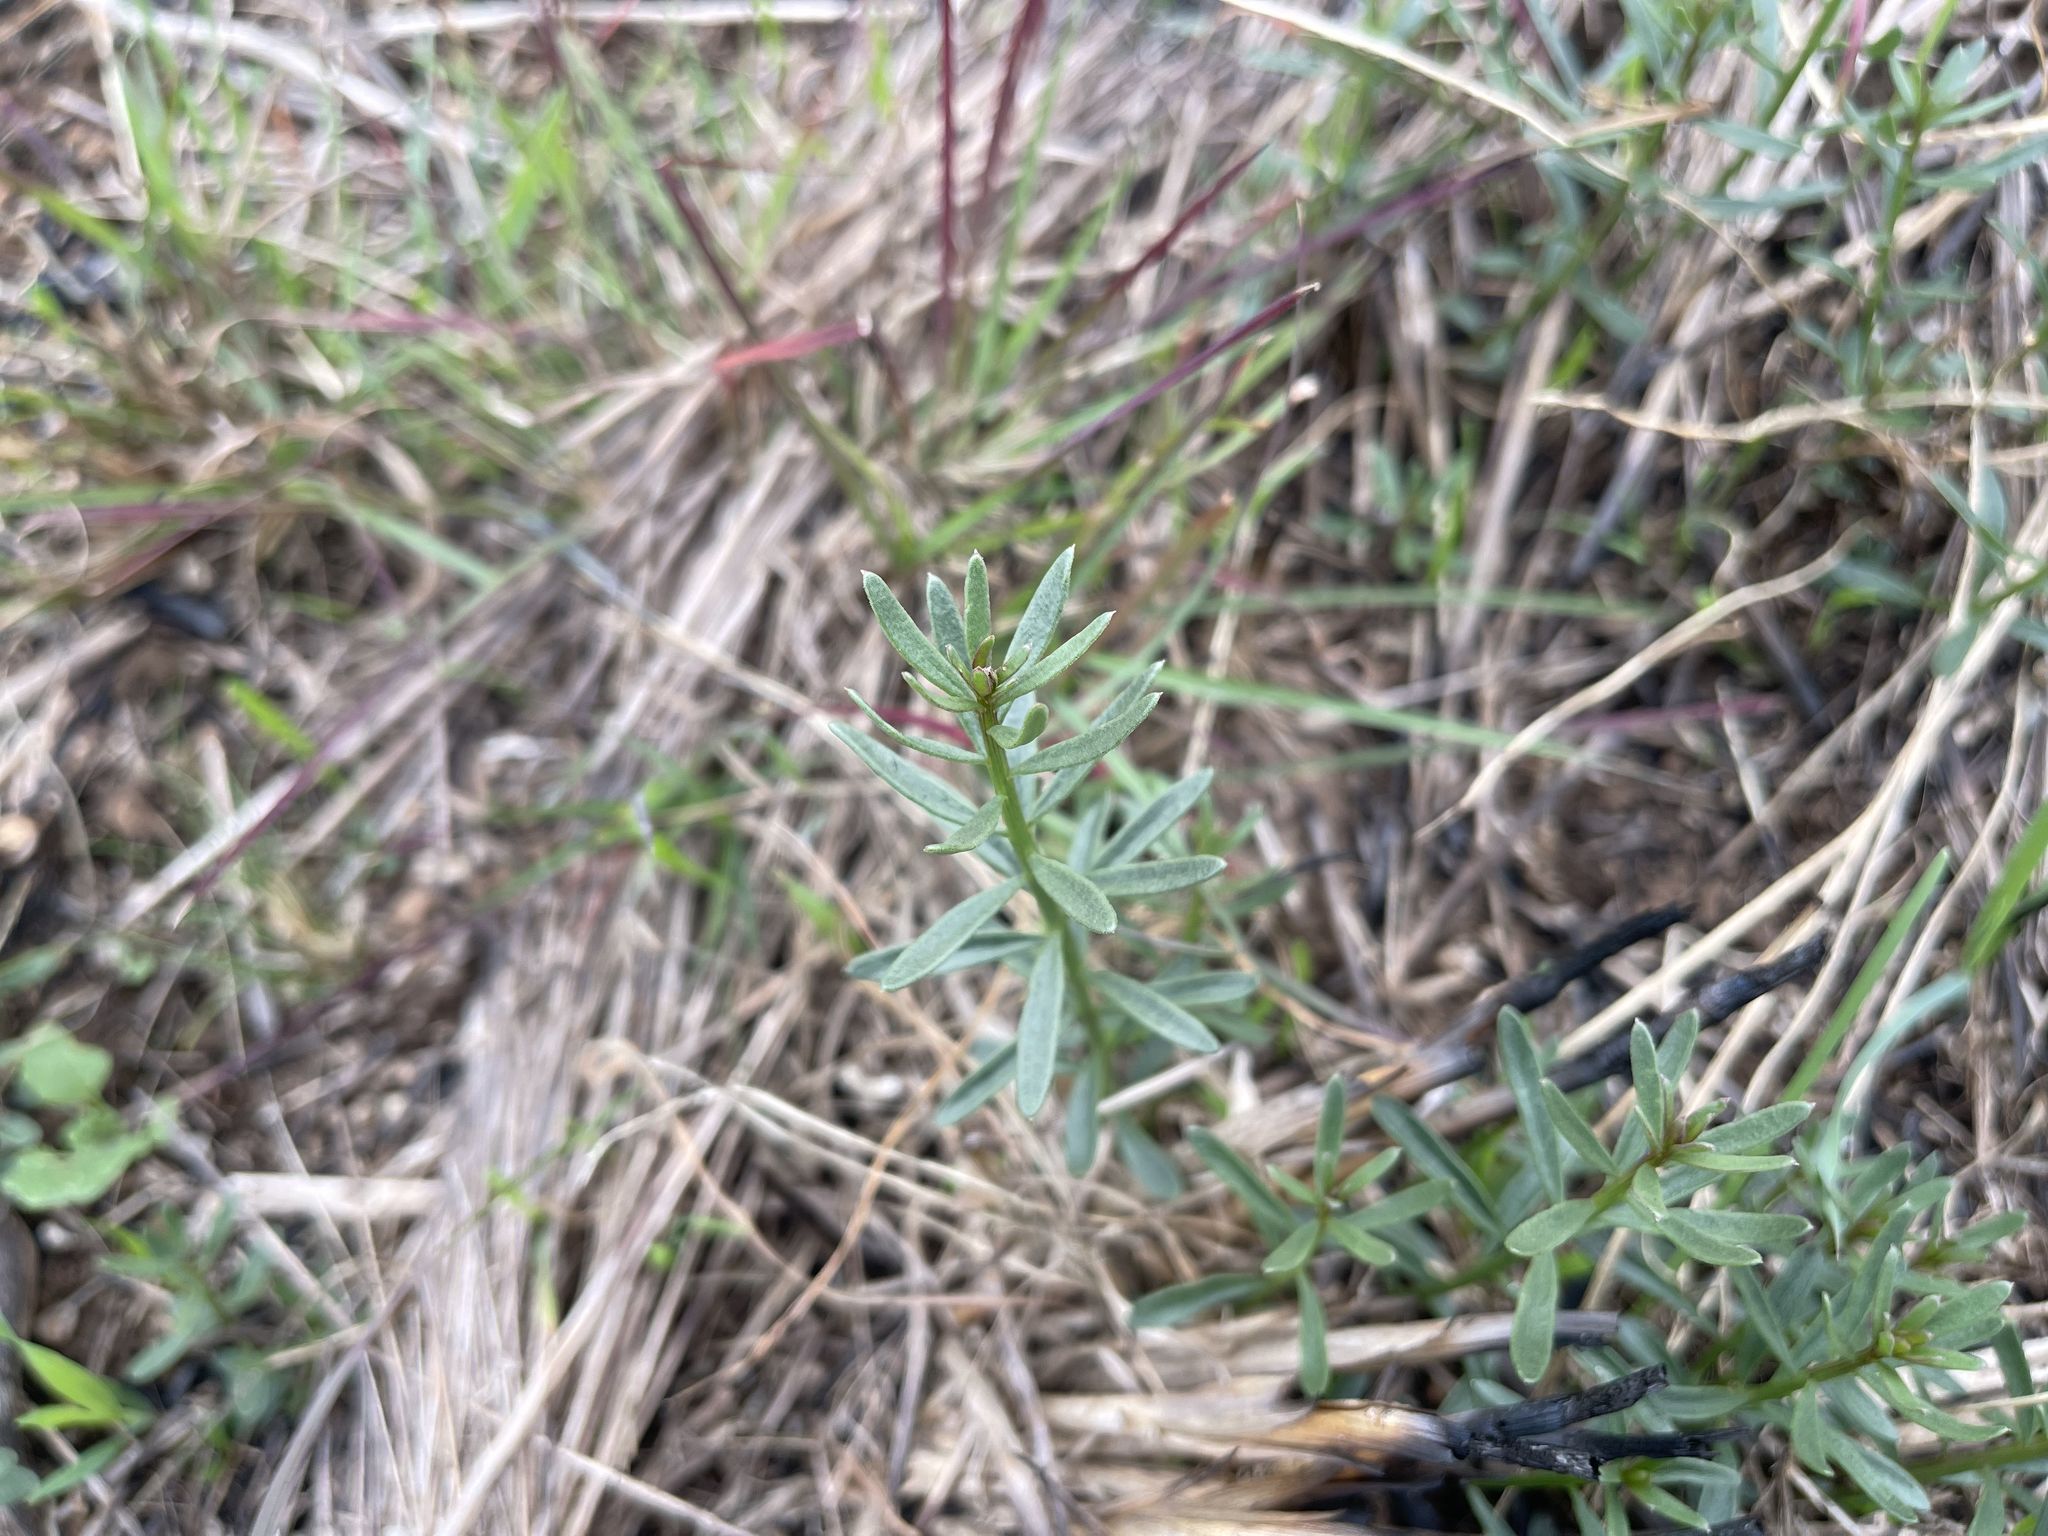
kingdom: Plantae
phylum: Tracheophyta
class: Magnoliopsida
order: Celastrales
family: Celastraceae
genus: Stackhousia
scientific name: Stackhousia subterranea
